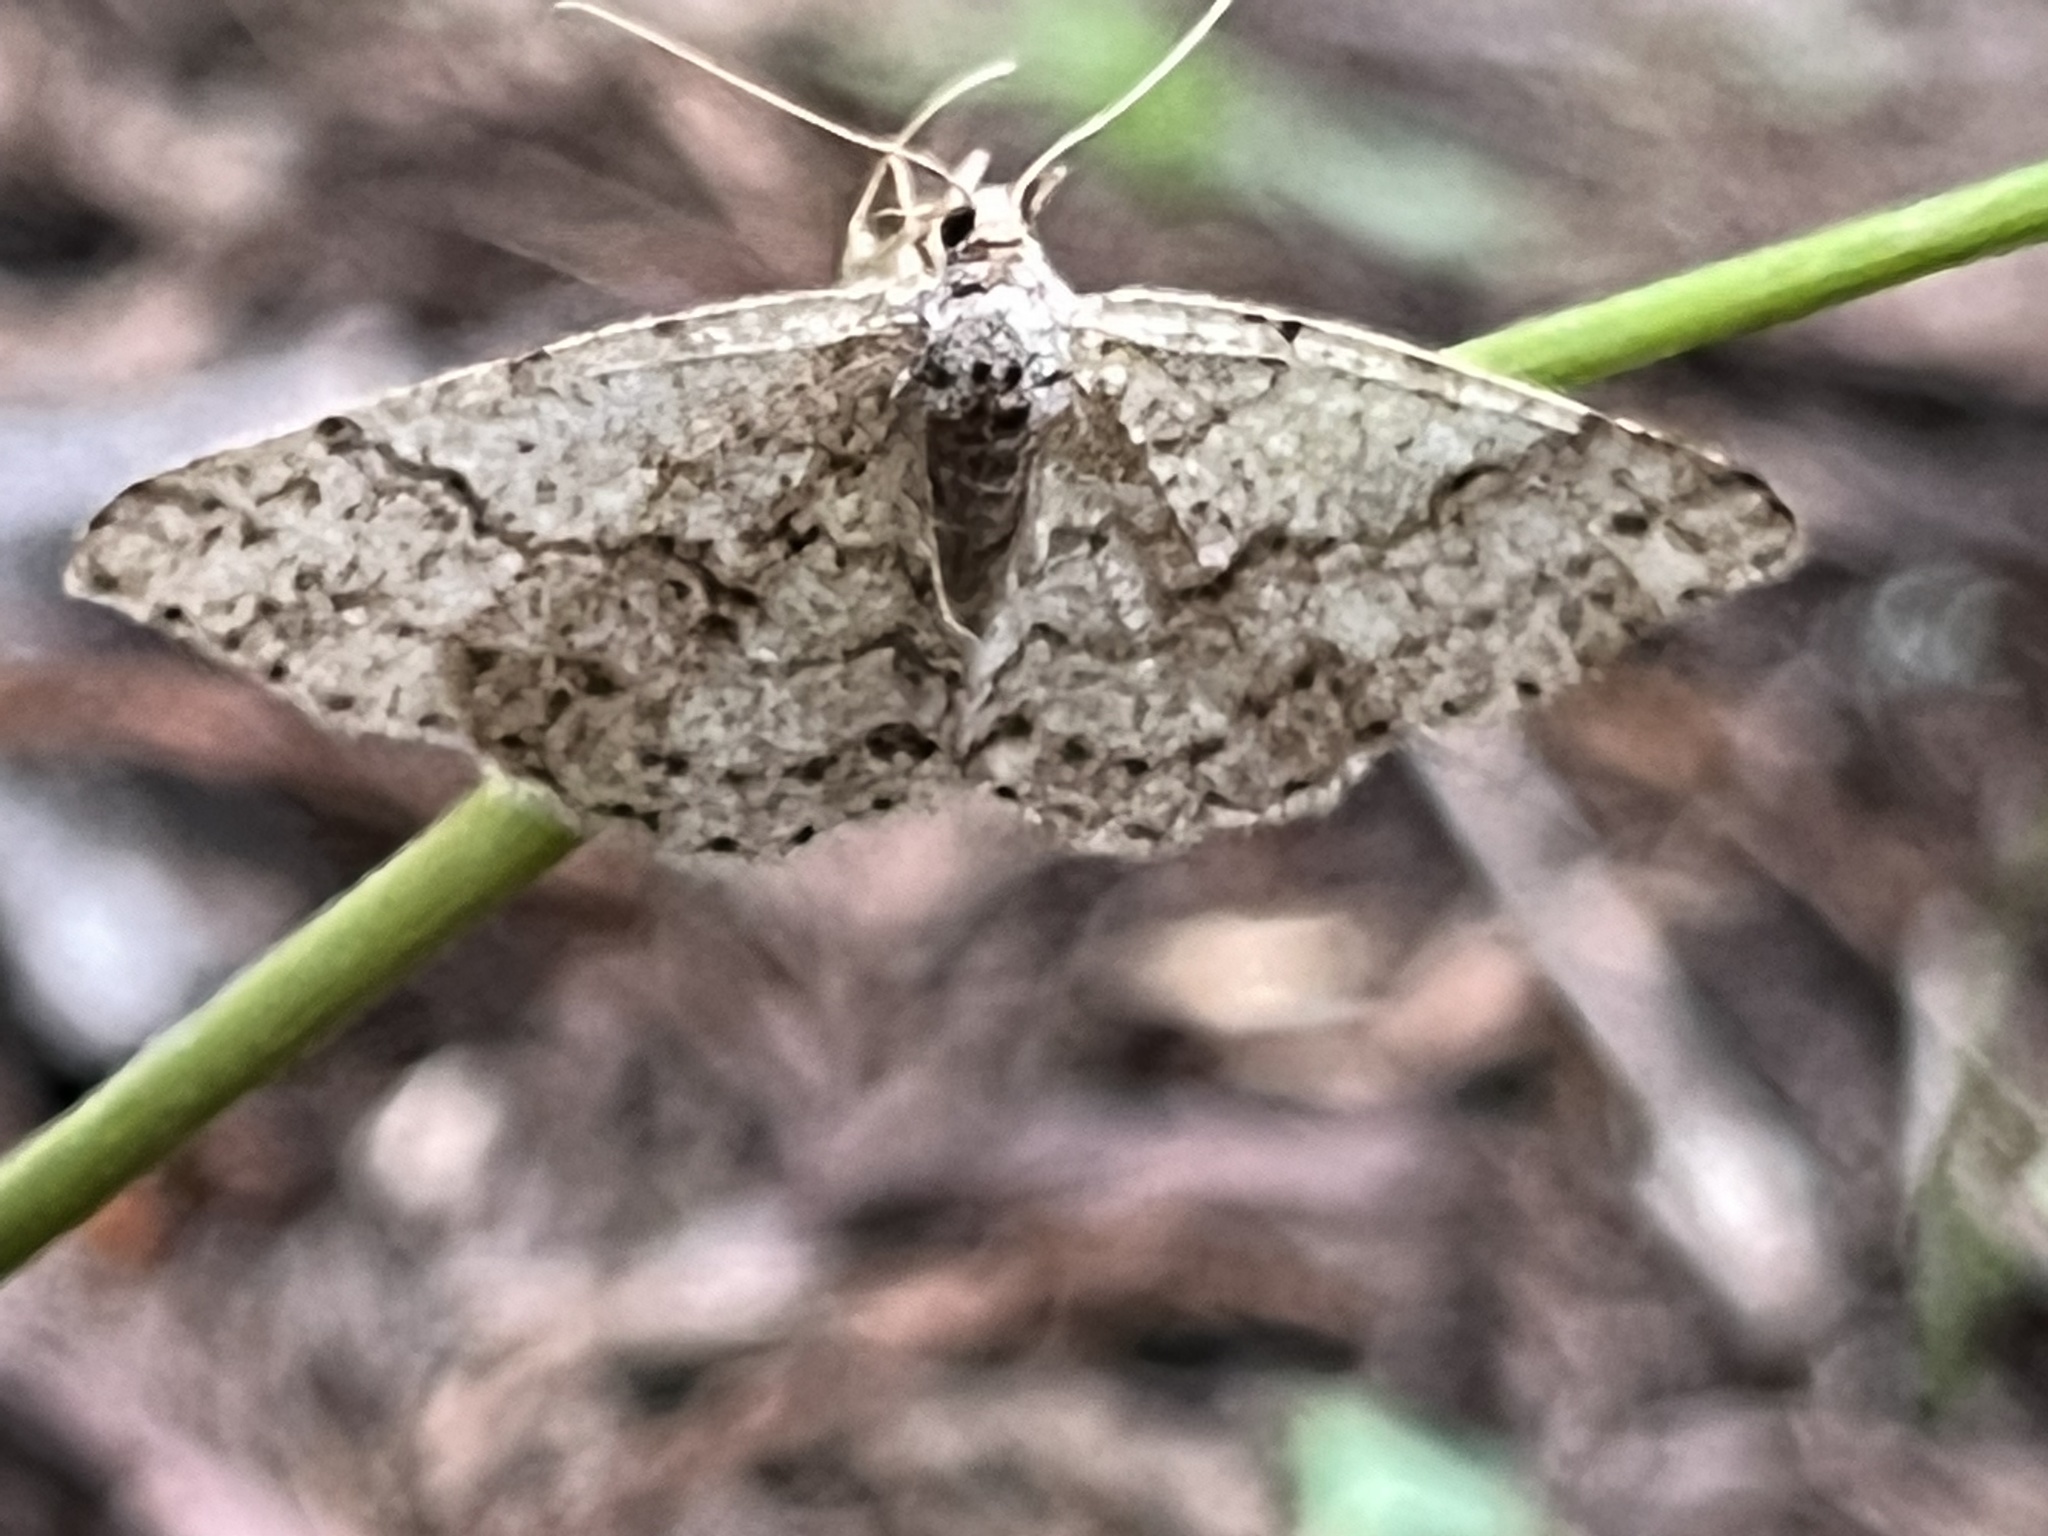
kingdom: Animalia
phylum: Arthropoda
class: Insecta
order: Lepidoptera
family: Geometridae
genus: Melanolophia
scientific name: Melanolophia imitata
